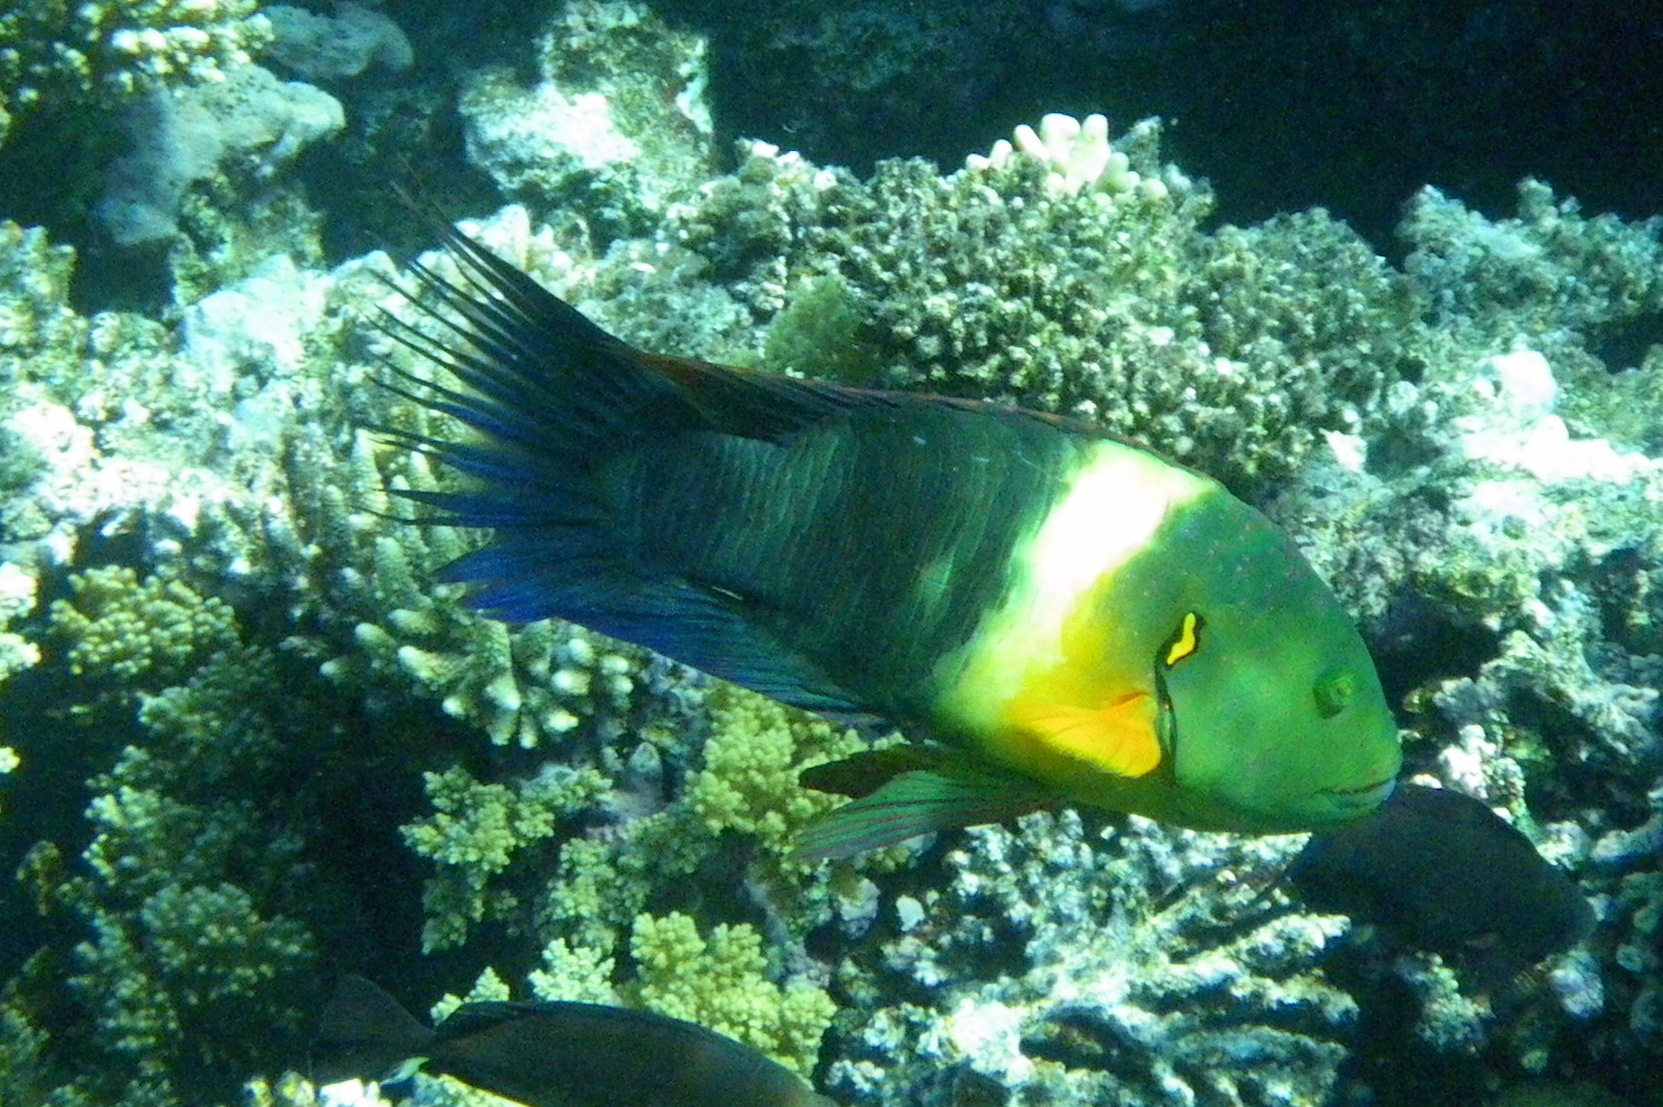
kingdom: Animalia
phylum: Chordata
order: Perciformes
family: Labridae
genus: Cheilinus
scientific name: Cheilinus lunulatus
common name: Broomtail wrasse
